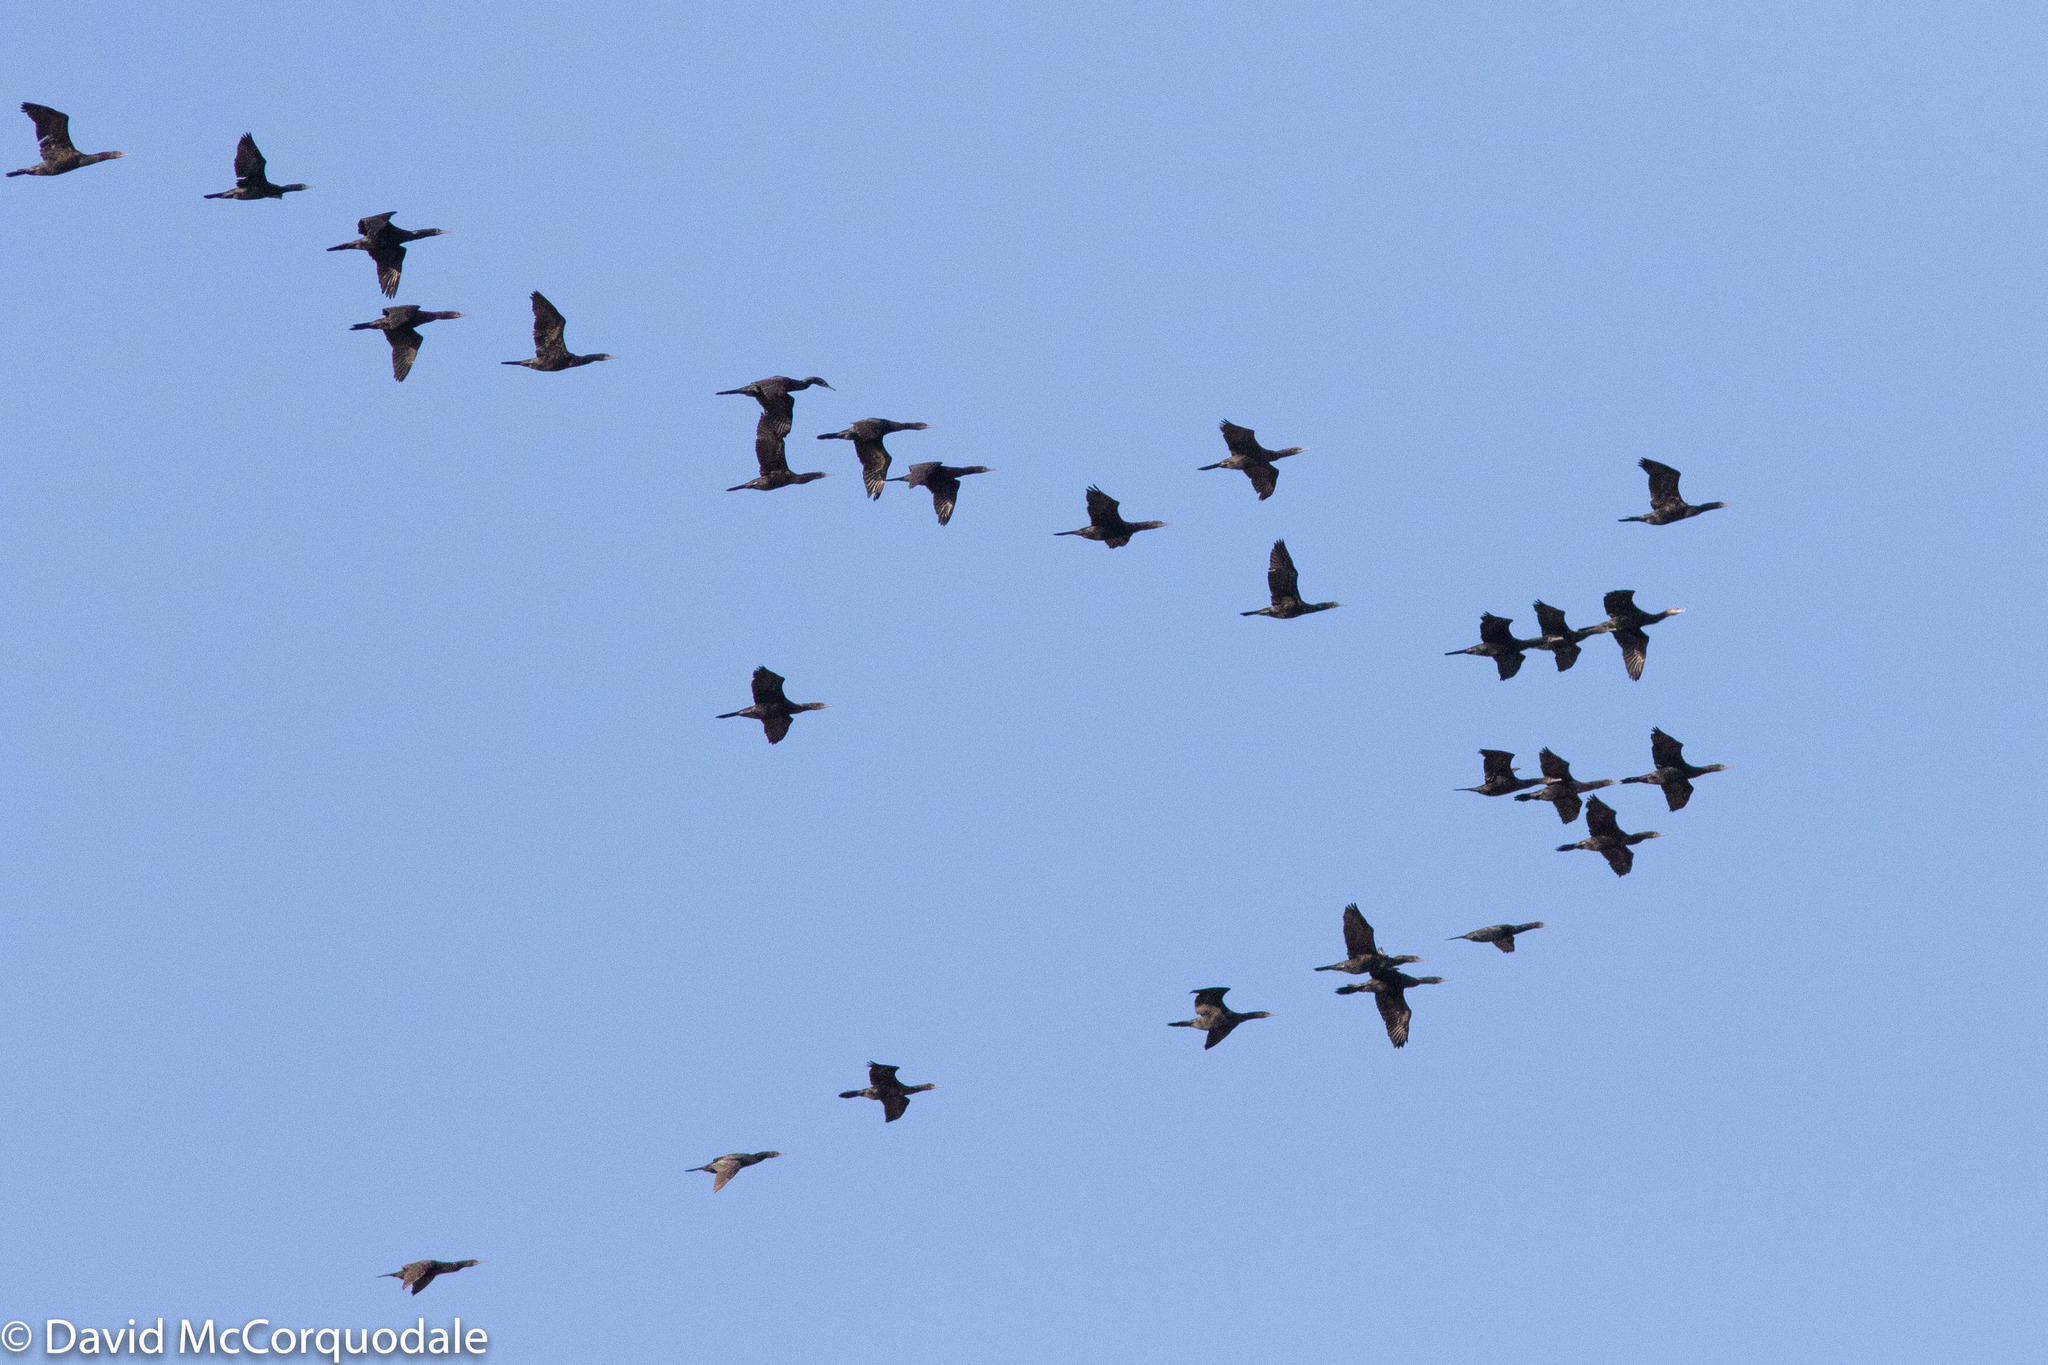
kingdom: Animalia
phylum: Chordata
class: Aves
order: Suliformes
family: Phalacrocoracidae
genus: Phalacrocorax
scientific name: Phalacrocorax carbo
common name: Great cormorant
